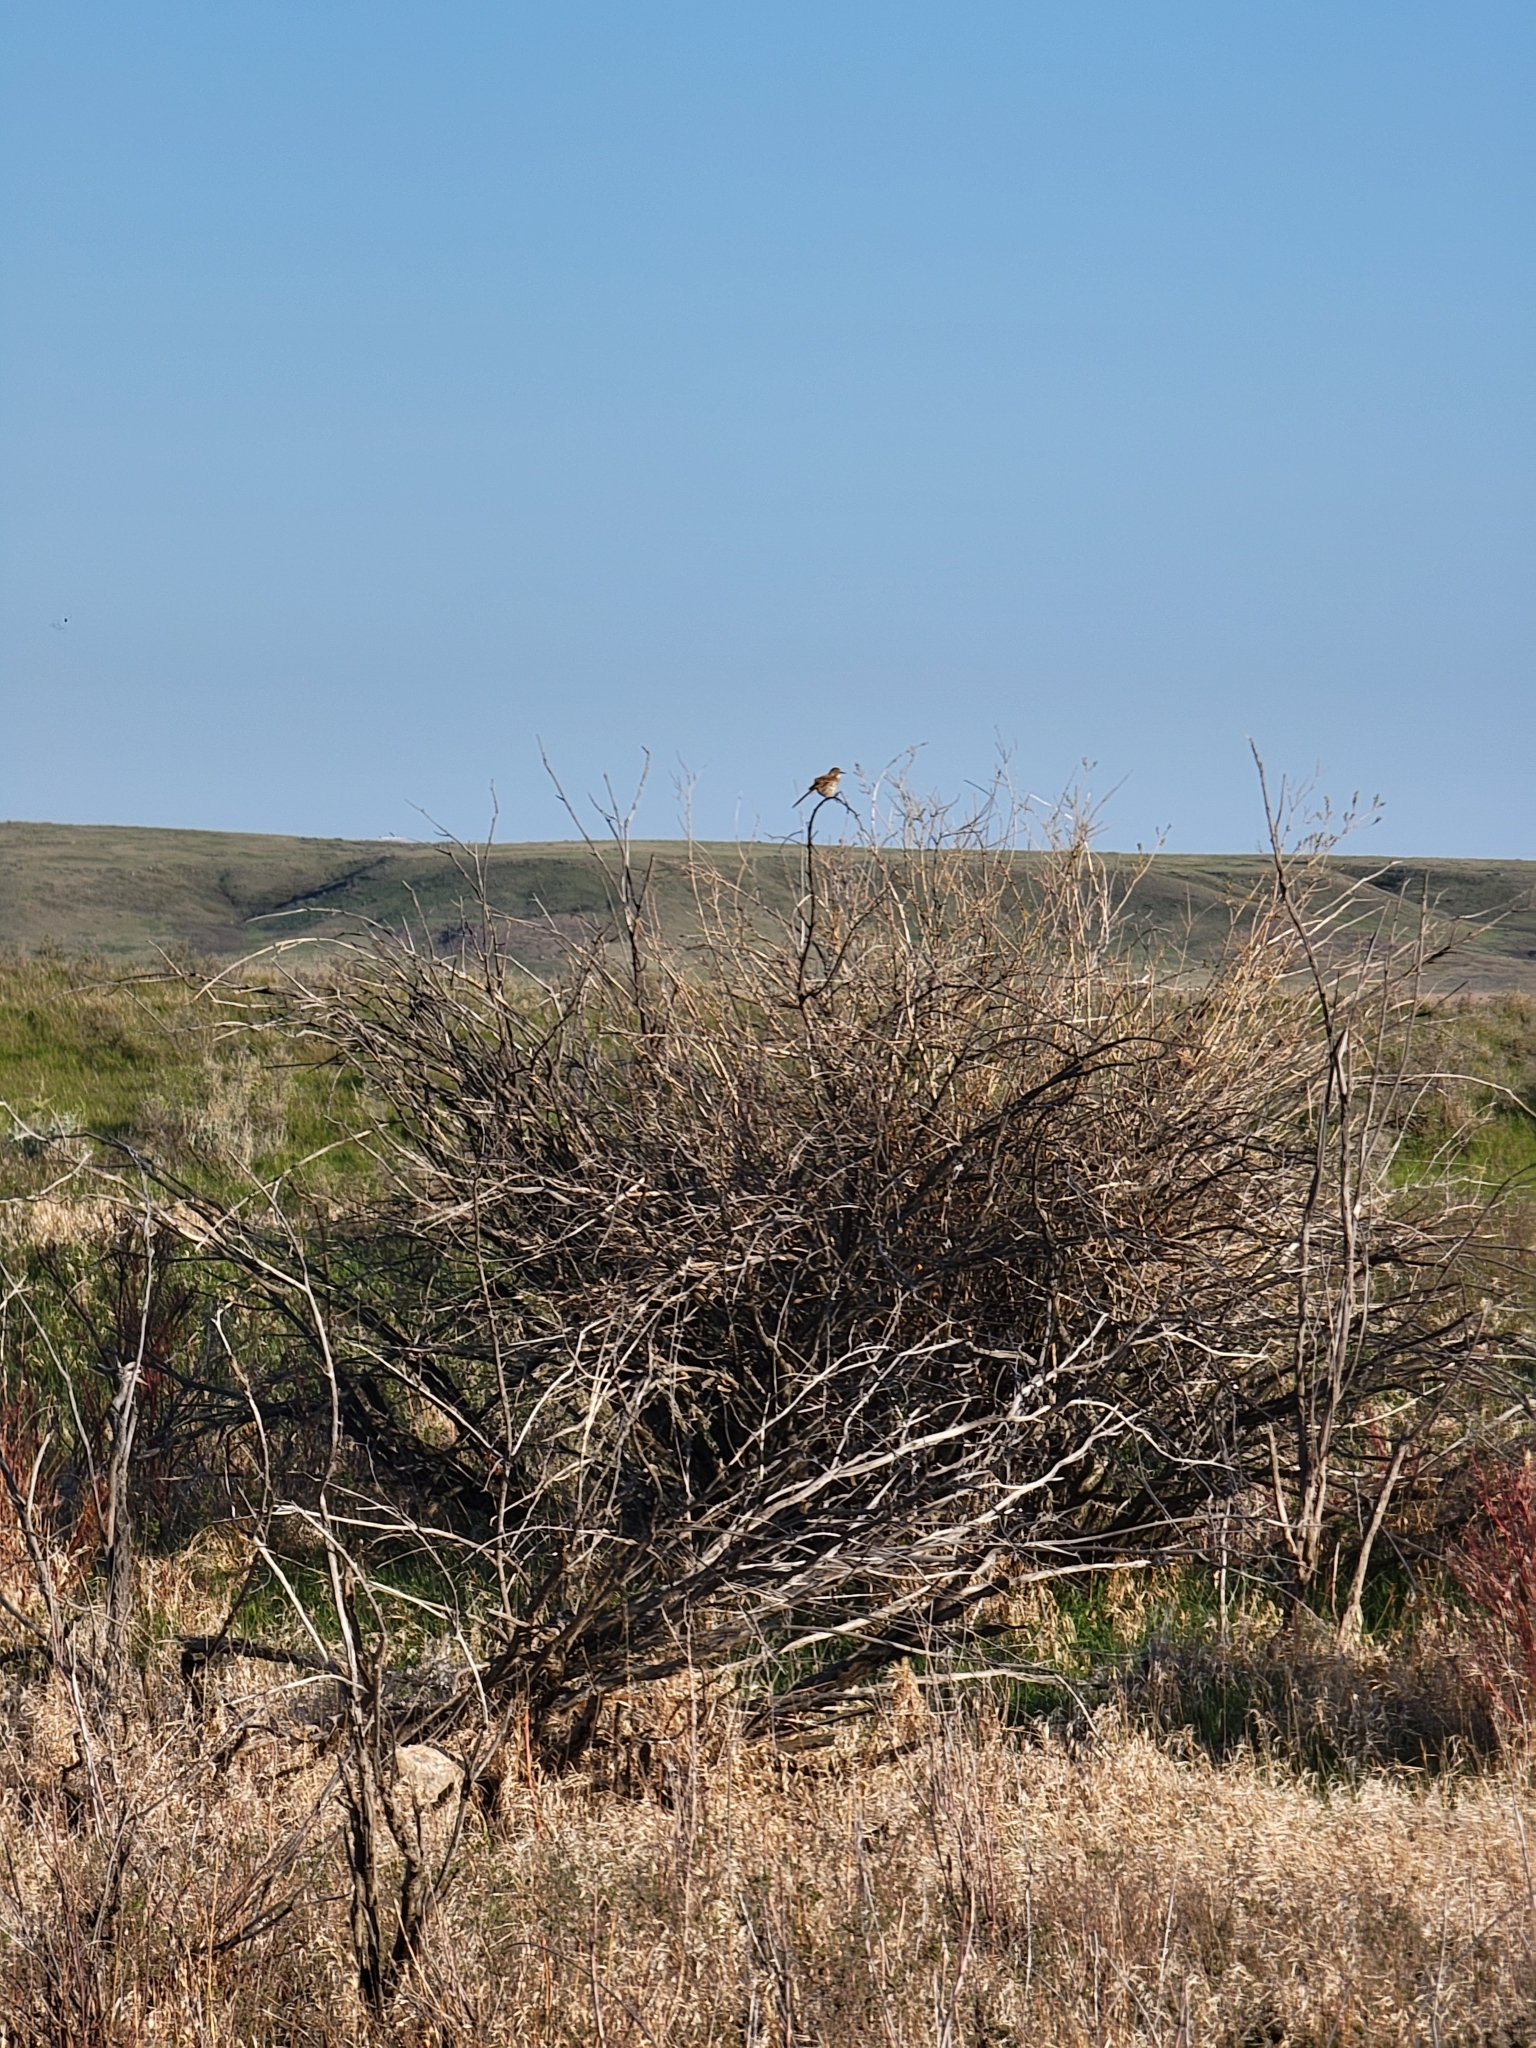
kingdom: Animalia
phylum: Chordata
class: Aves
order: Passeriformes
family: Mimidae
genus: Toxostoma
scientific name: Toxostoma rufum
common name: Brown thrasher
